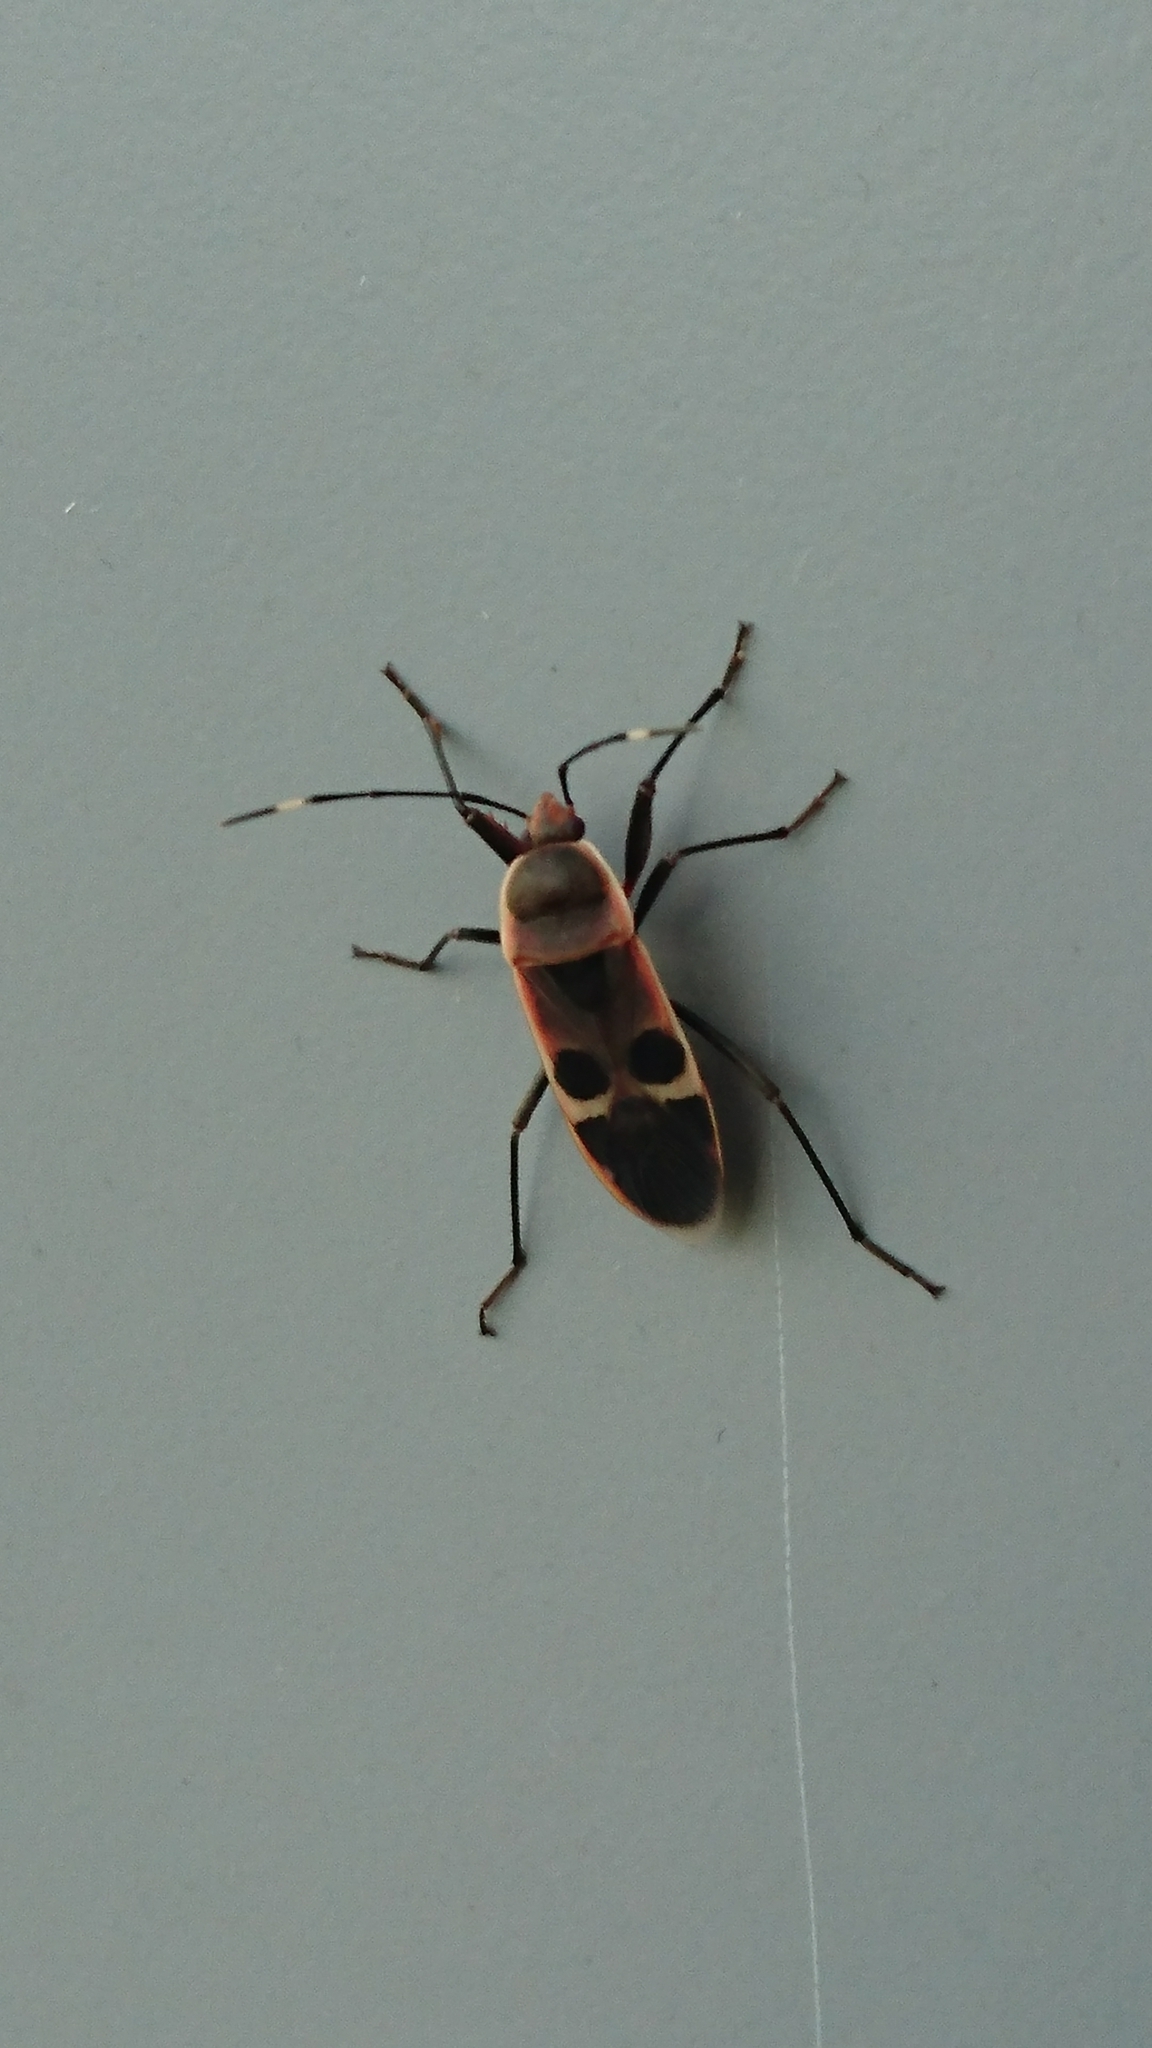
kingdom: Animalia
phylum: Arthropoda
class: Insecta
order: Hemiptera
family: Largidae
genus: Physopelta
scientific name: Physopelta gutta
